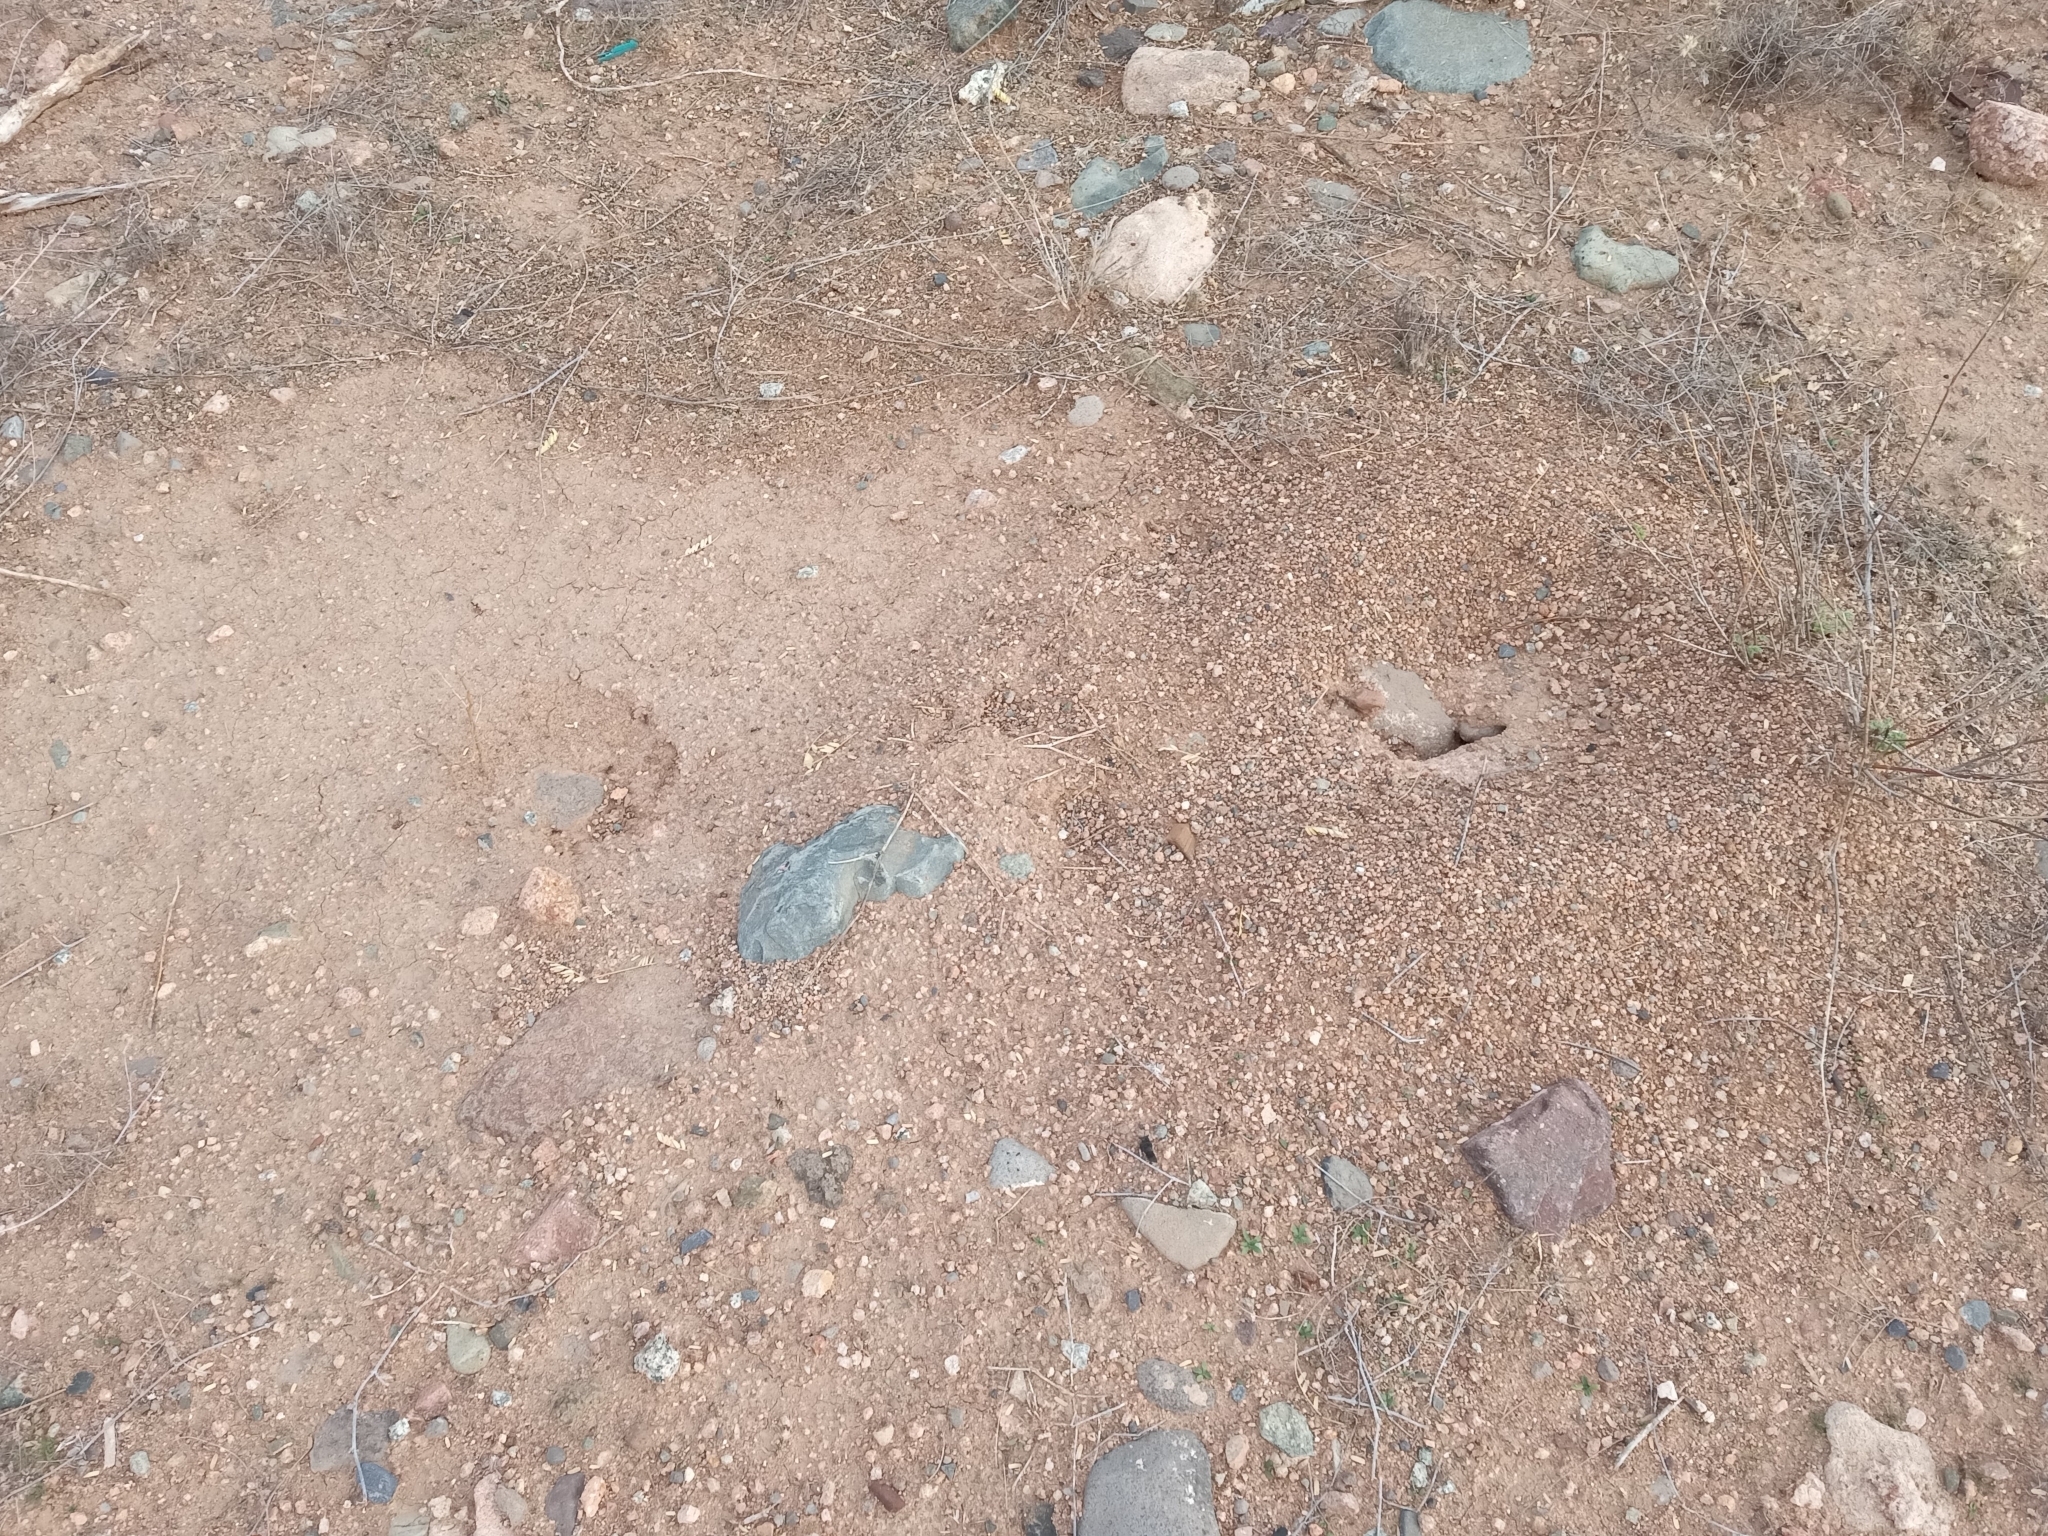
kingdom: Animalia
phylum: Arthropoda
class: Insecta
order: Hymenoptera
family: Formicidae
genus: Novomessor
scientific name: Novomessor cockerelli
